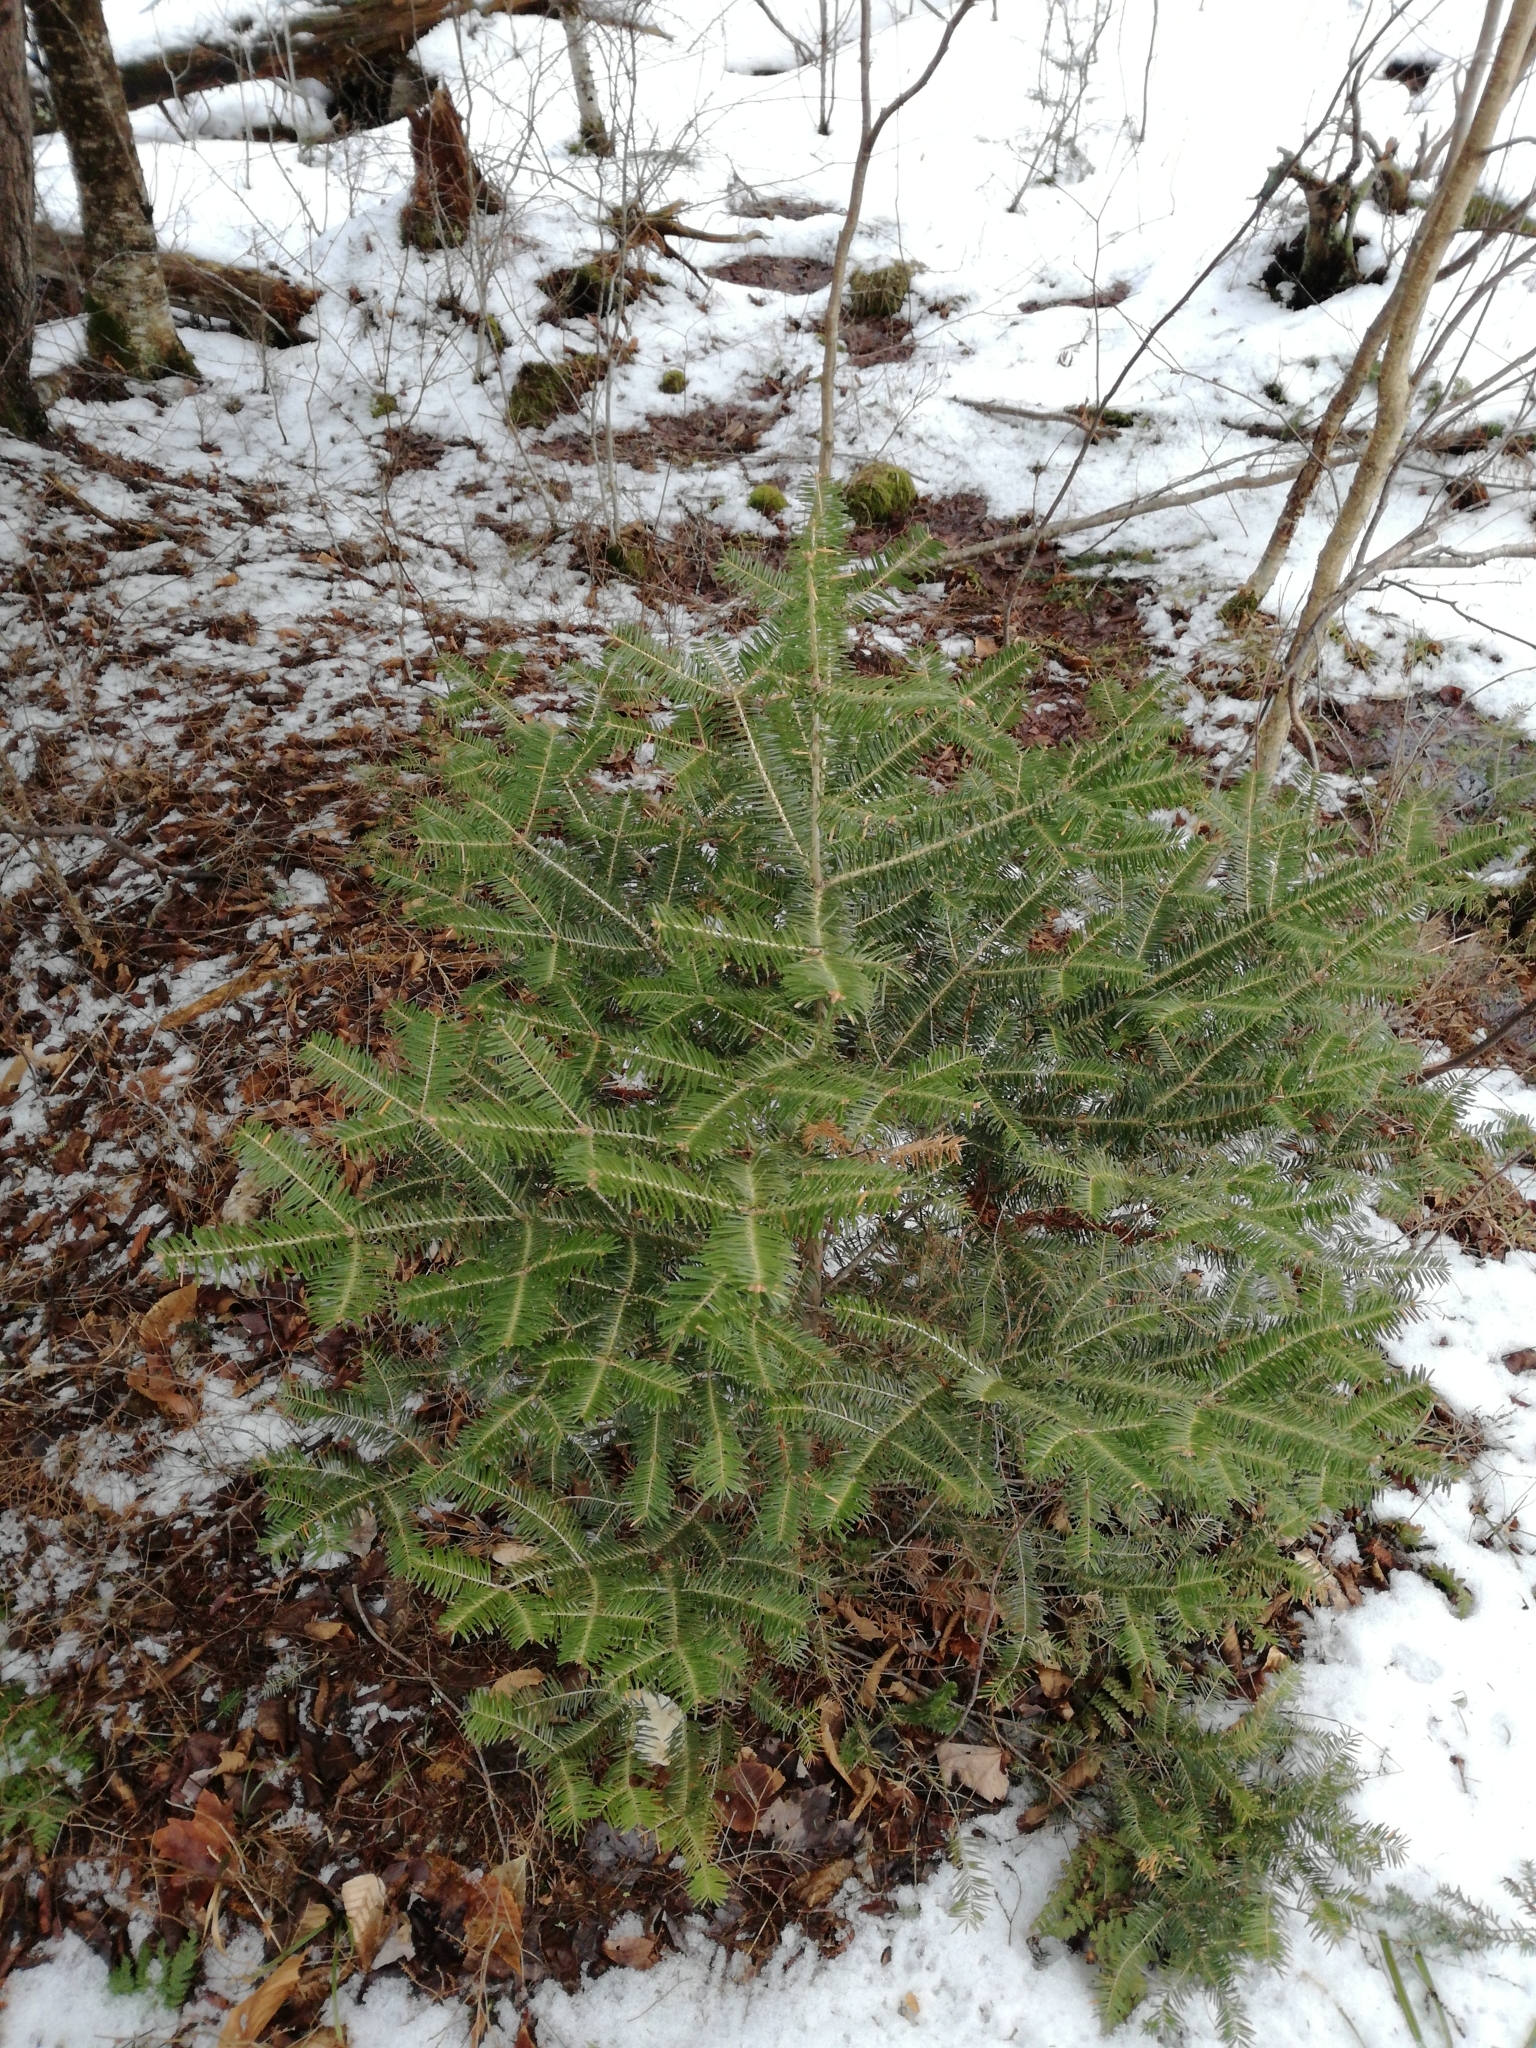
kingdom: Plantae
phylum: Tracheophyta
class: Pinopsida
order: Pinales
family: Pinaceae
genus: Abies
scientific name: Abies balsamea
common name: Balsam fir
